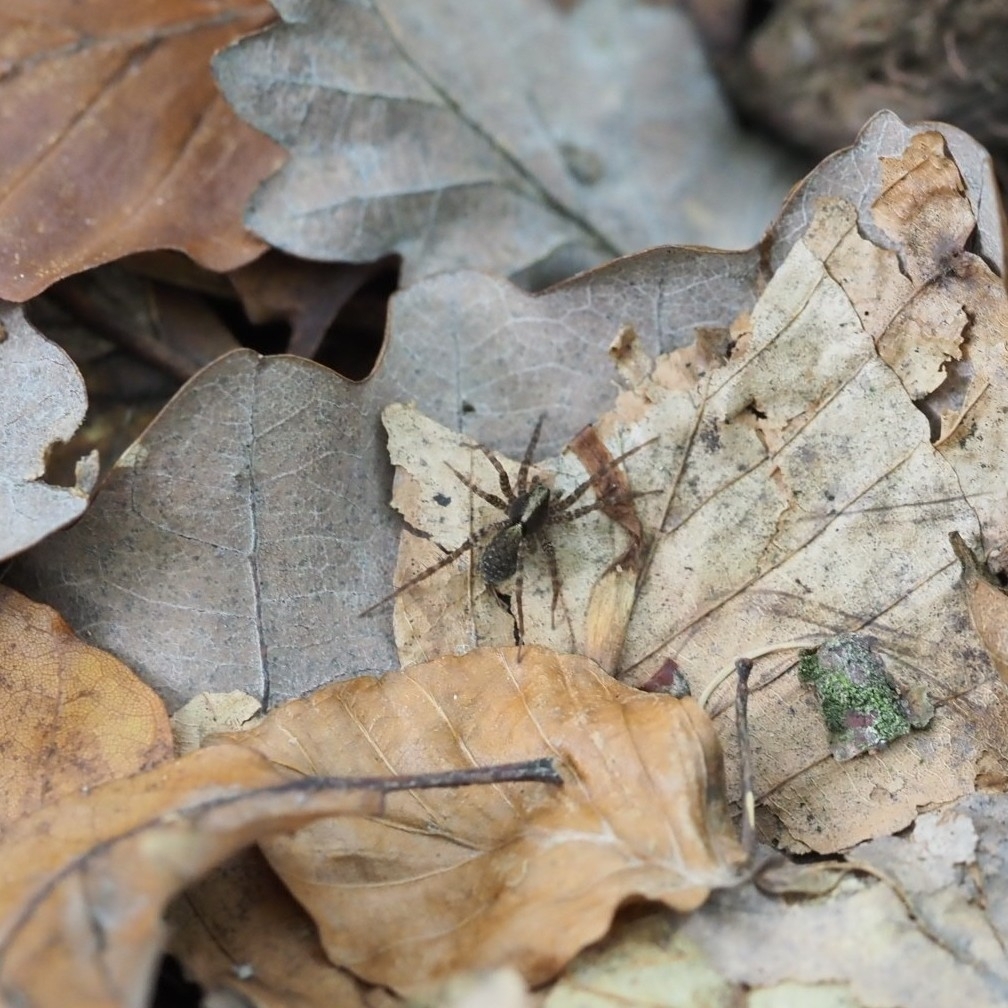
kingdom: Animalia
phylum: Arthropoda
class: Arachnida
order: Araneae
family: Lycosidae
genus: Pardosa
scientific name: Pardosa
